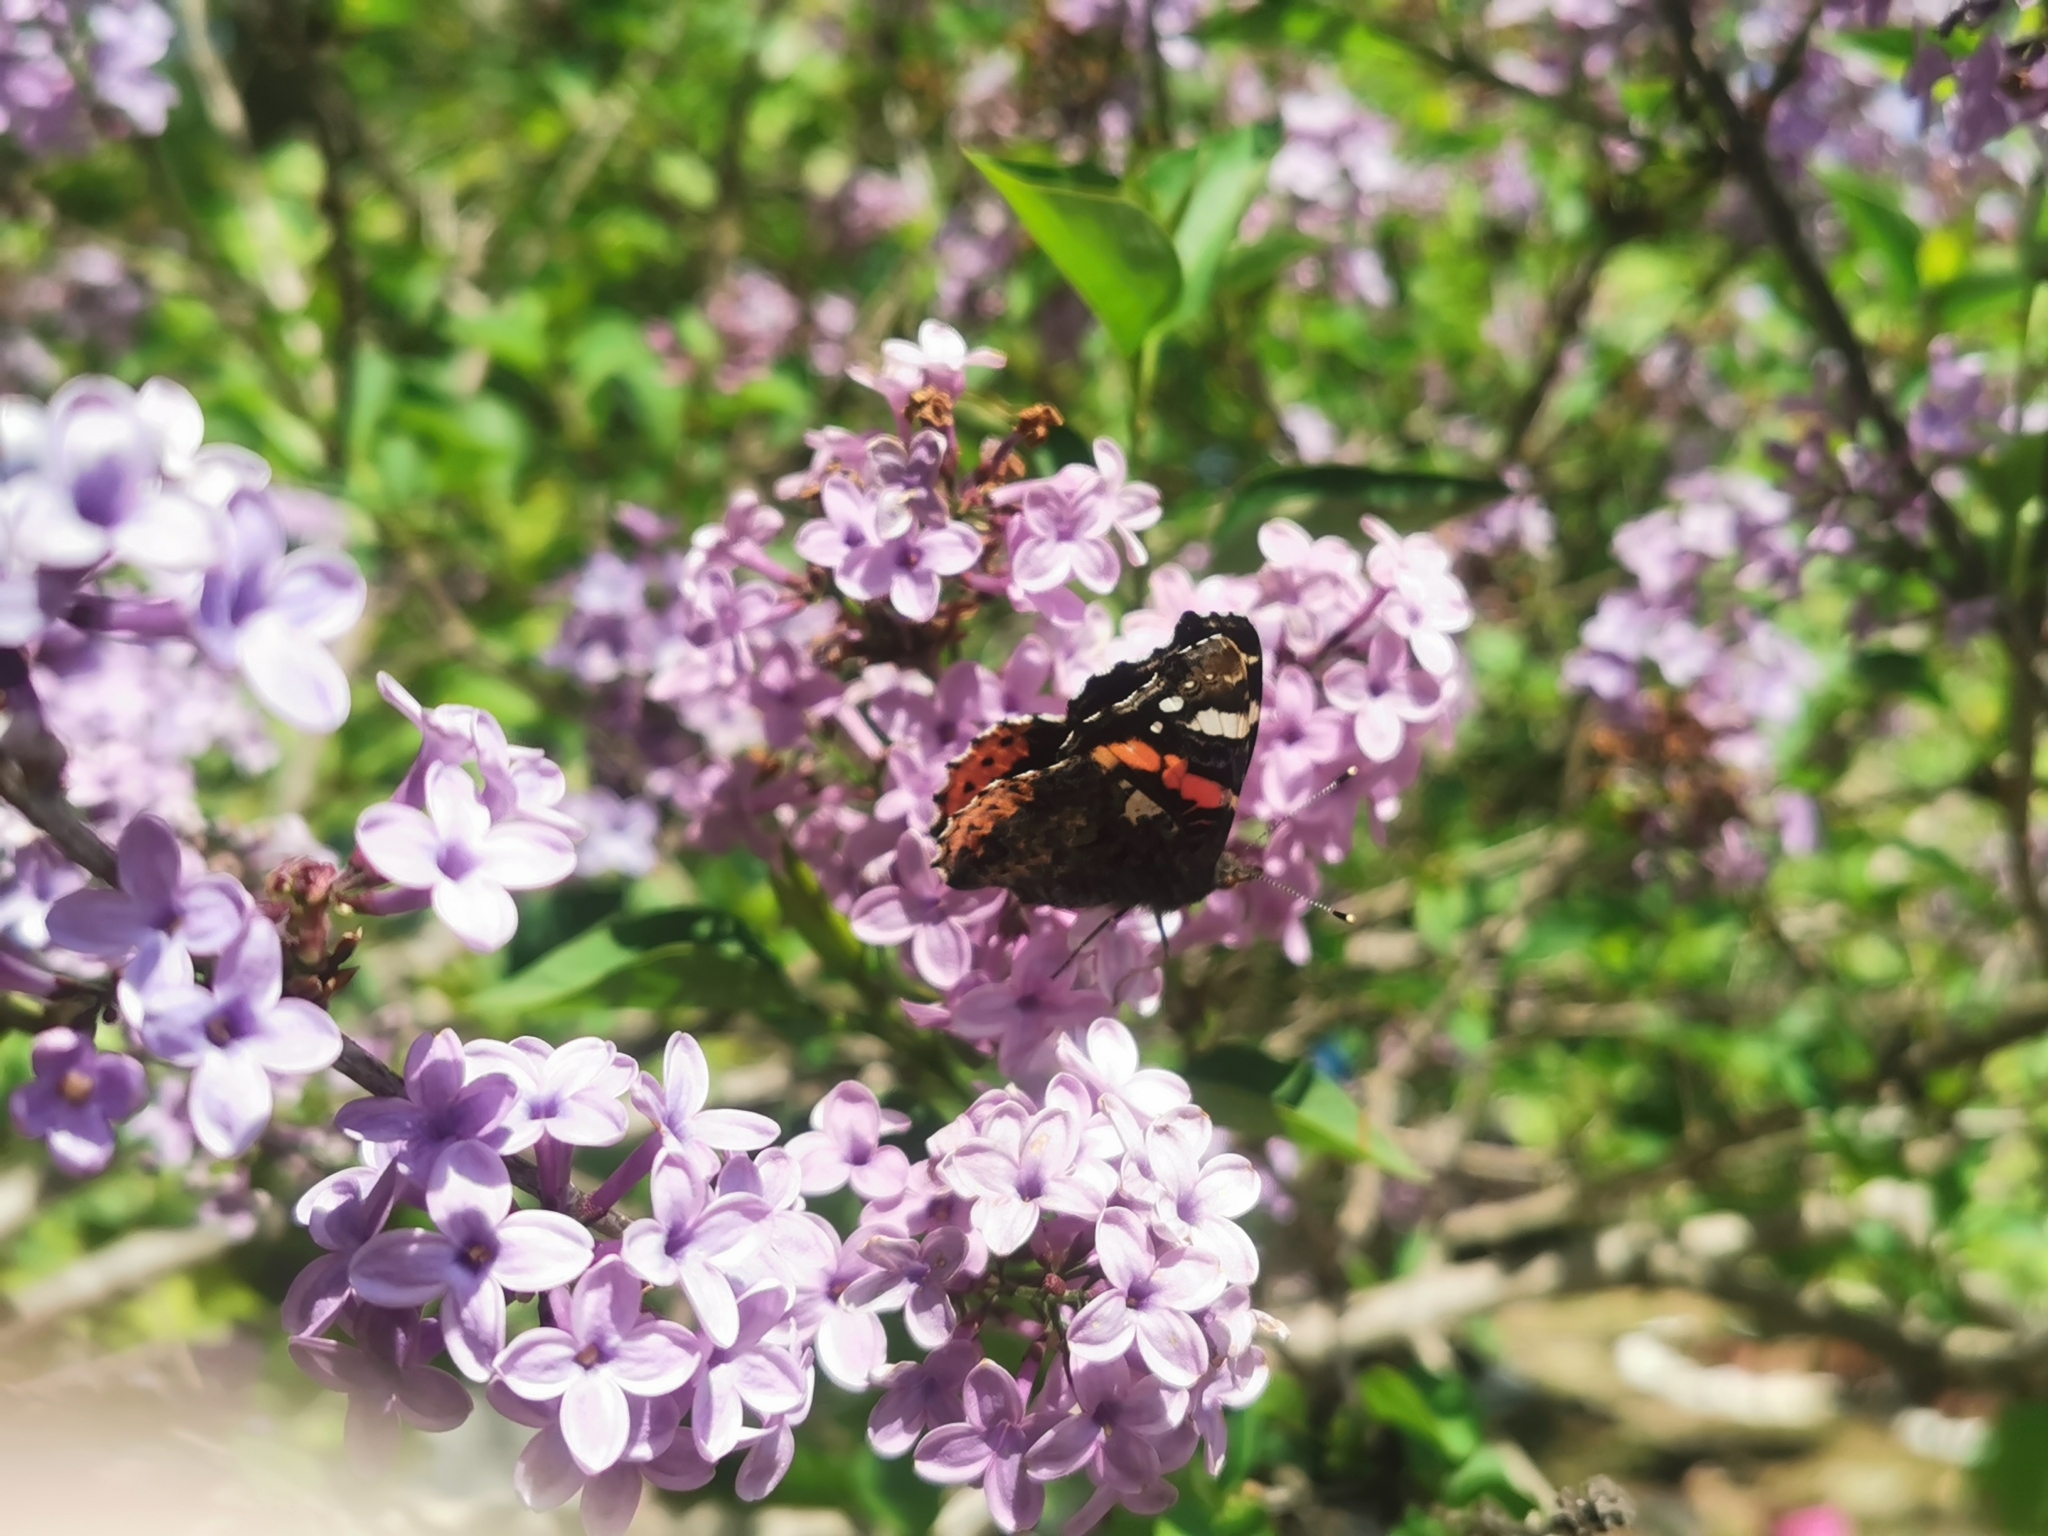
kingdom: Animalia
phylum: Arthropoda
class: Insecta
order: Lepidoptera
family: Nymphalidae
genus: Vanessa
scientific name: Vanessa atalanta
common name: Red admiral
